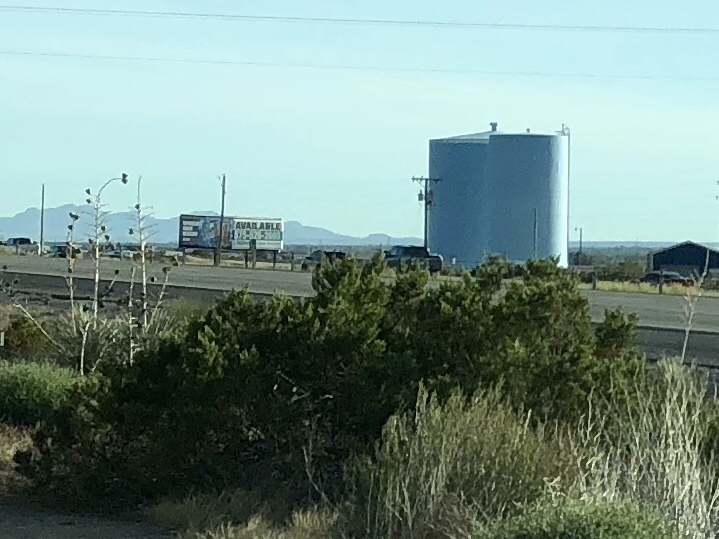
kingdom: Plantae
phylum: Tracheophyta
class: Magnoliopsida
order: Zygophyllales
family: Zygophyllaceae
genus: Larrea
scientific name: Larrea tridentata
